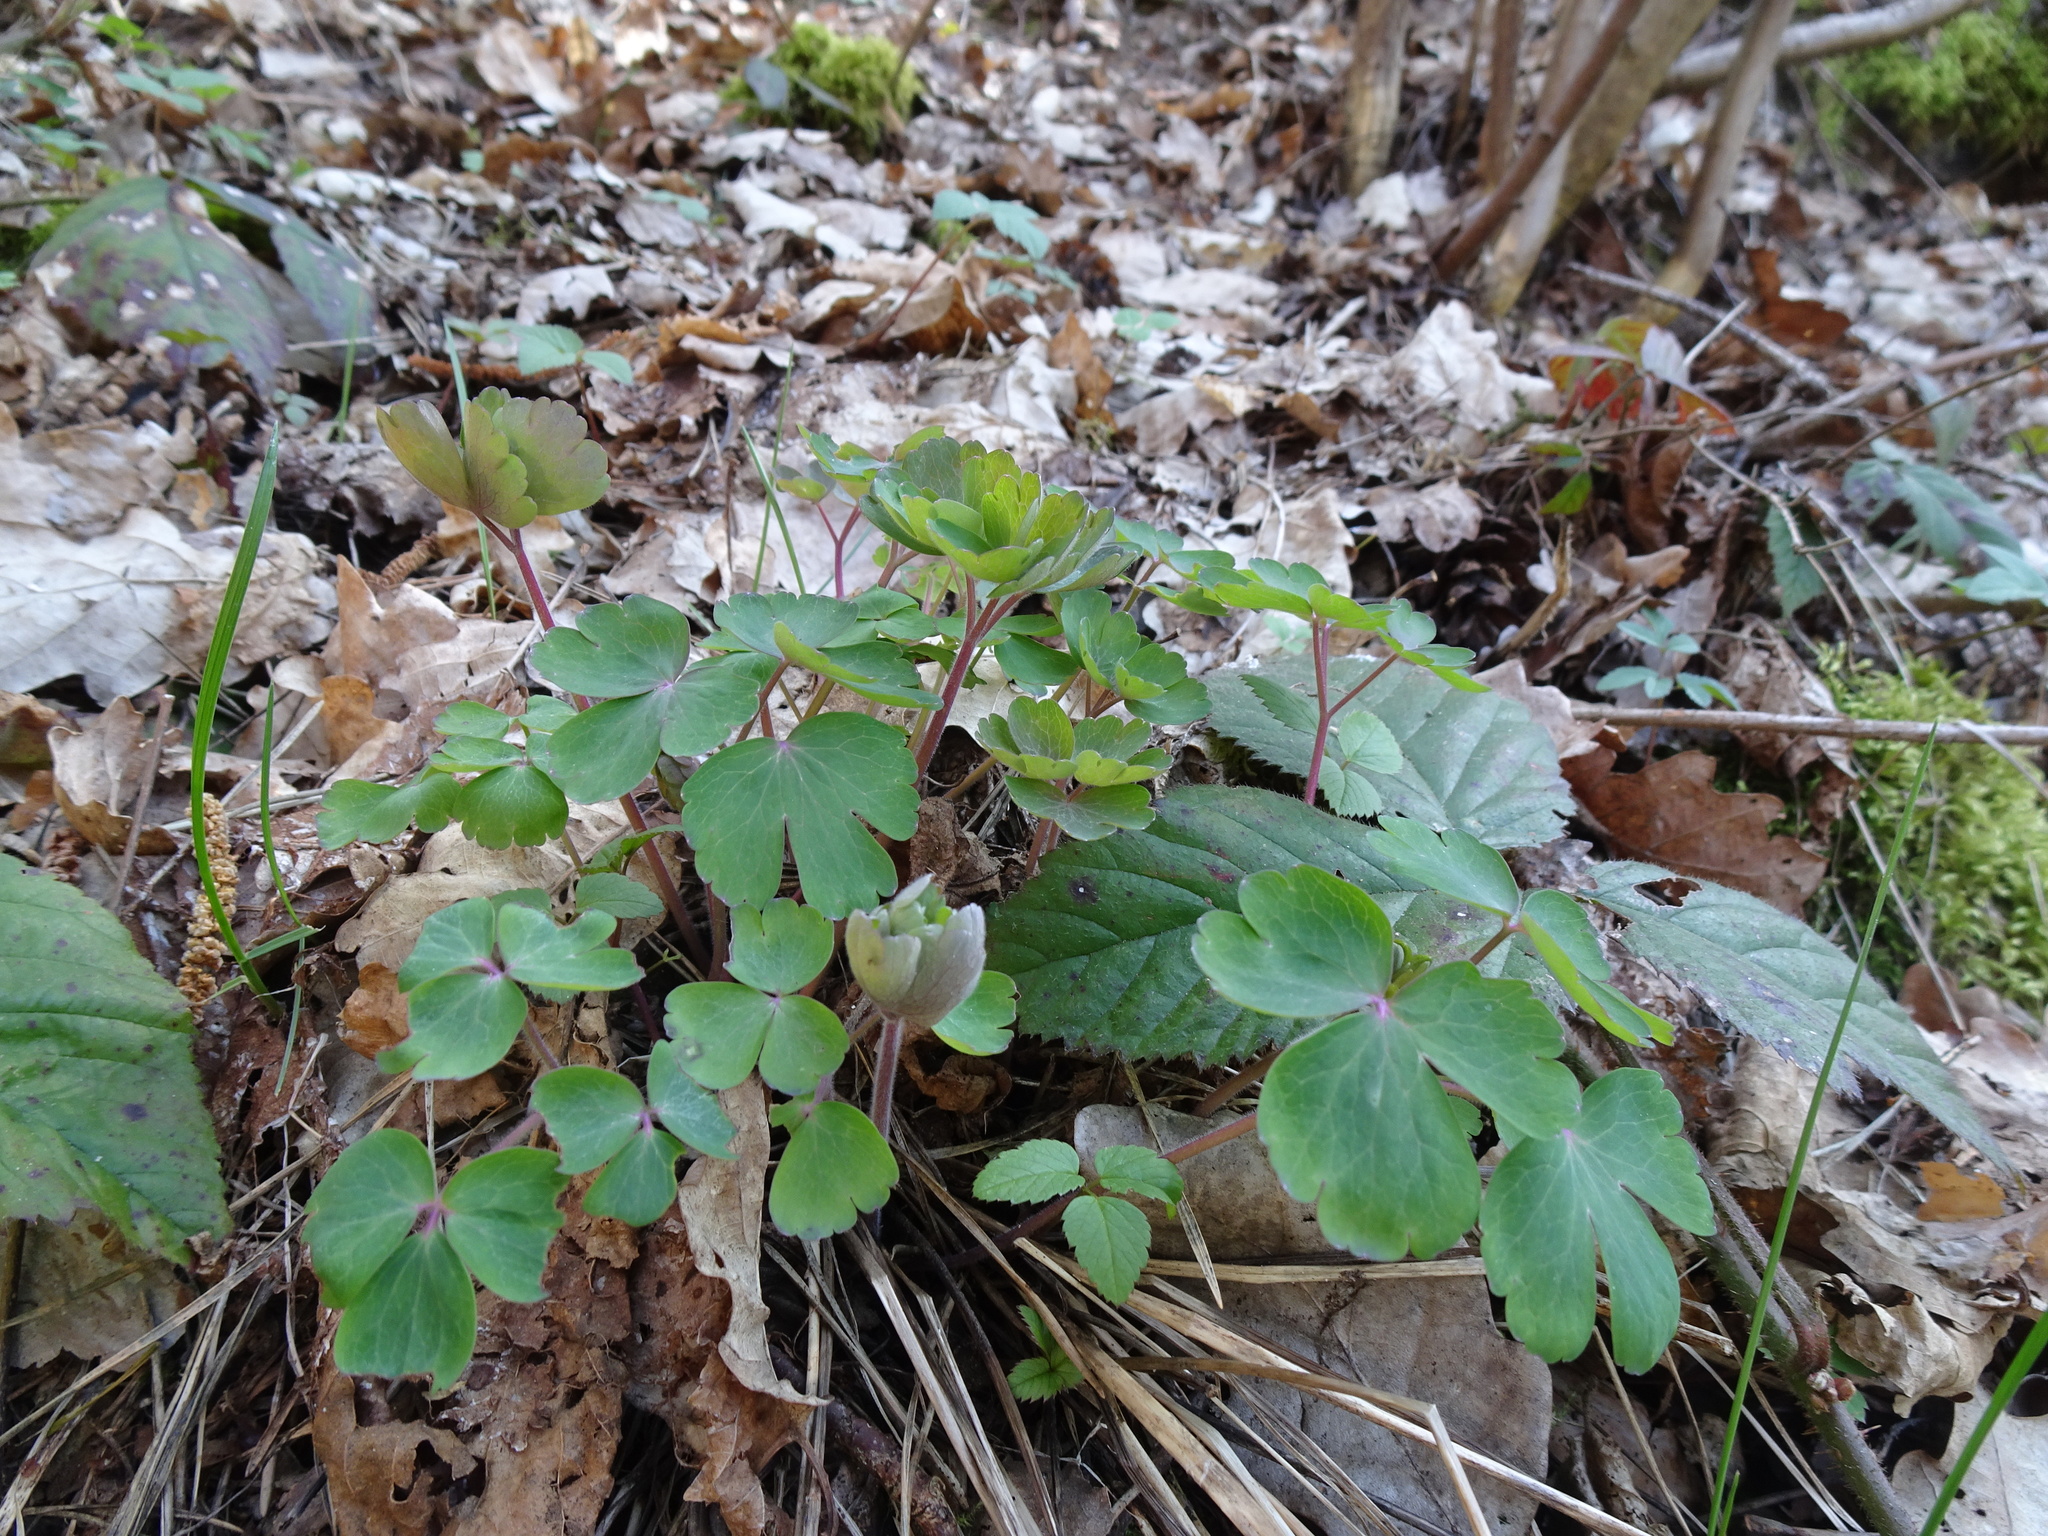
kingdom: Plantae
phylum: Tracheophyta
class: Magnoliopsida
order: Ranunculales
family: Ranunculaceae
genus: Aquilegia
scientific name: Aquilegia vulgaris
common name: Columbine
